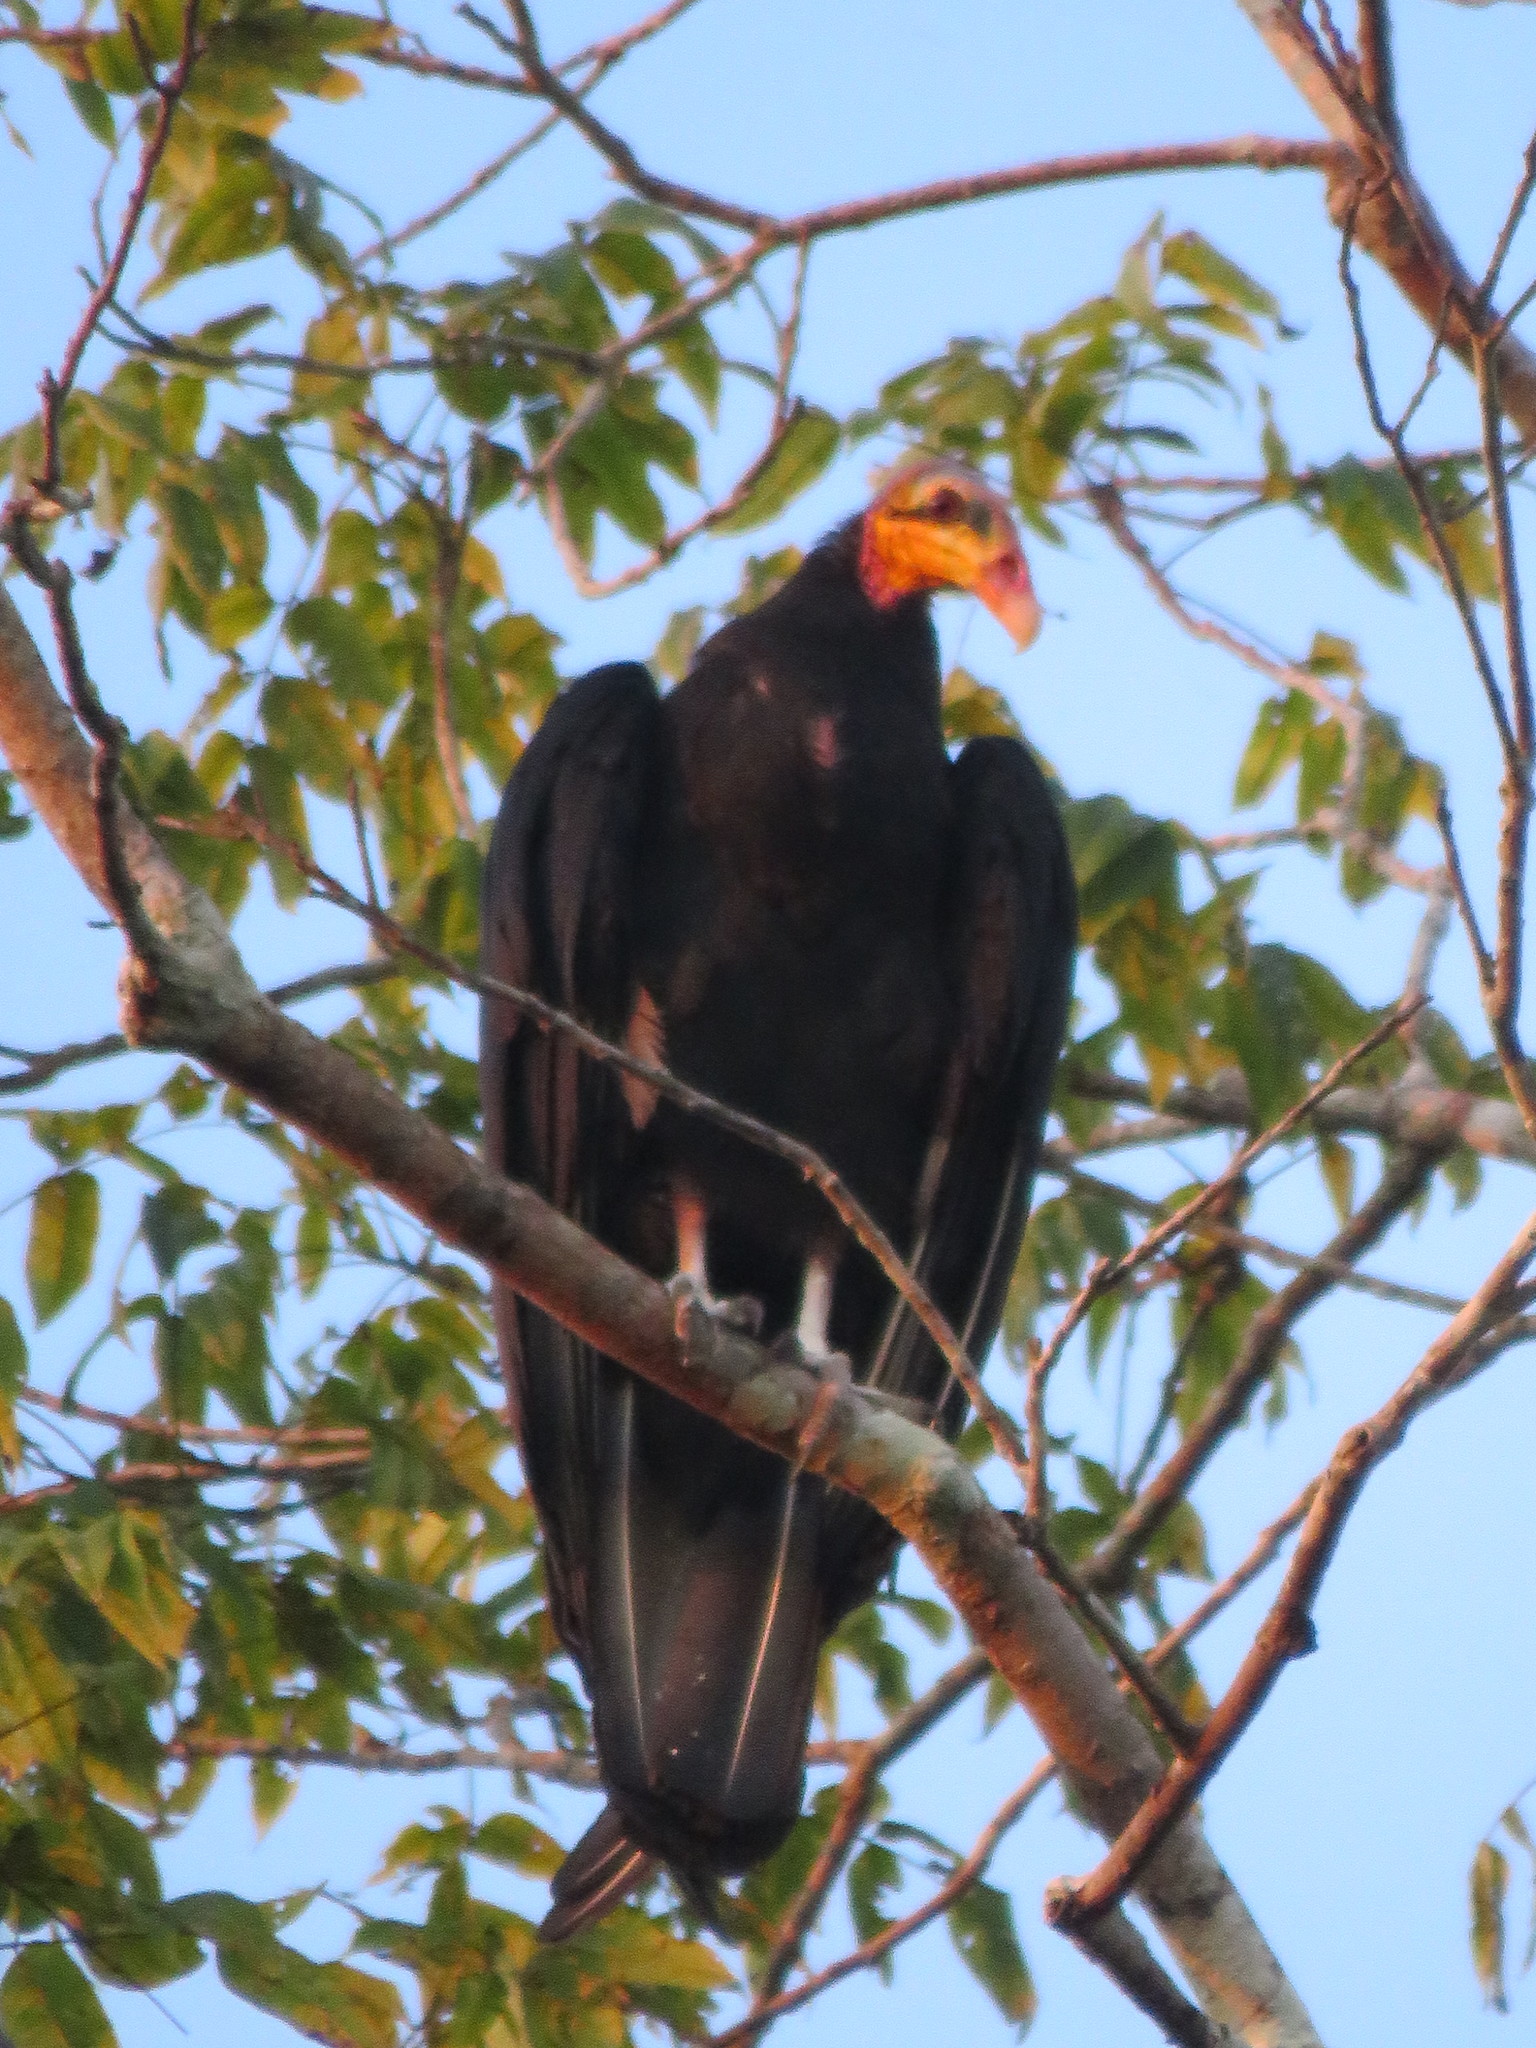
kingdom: Animalia
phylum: Chordata
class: Aves
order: Accipitriformes
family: Cathartidae
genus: Cathartes
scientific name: Cathartes melambrotus
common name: Greater yellow-headed vulture
